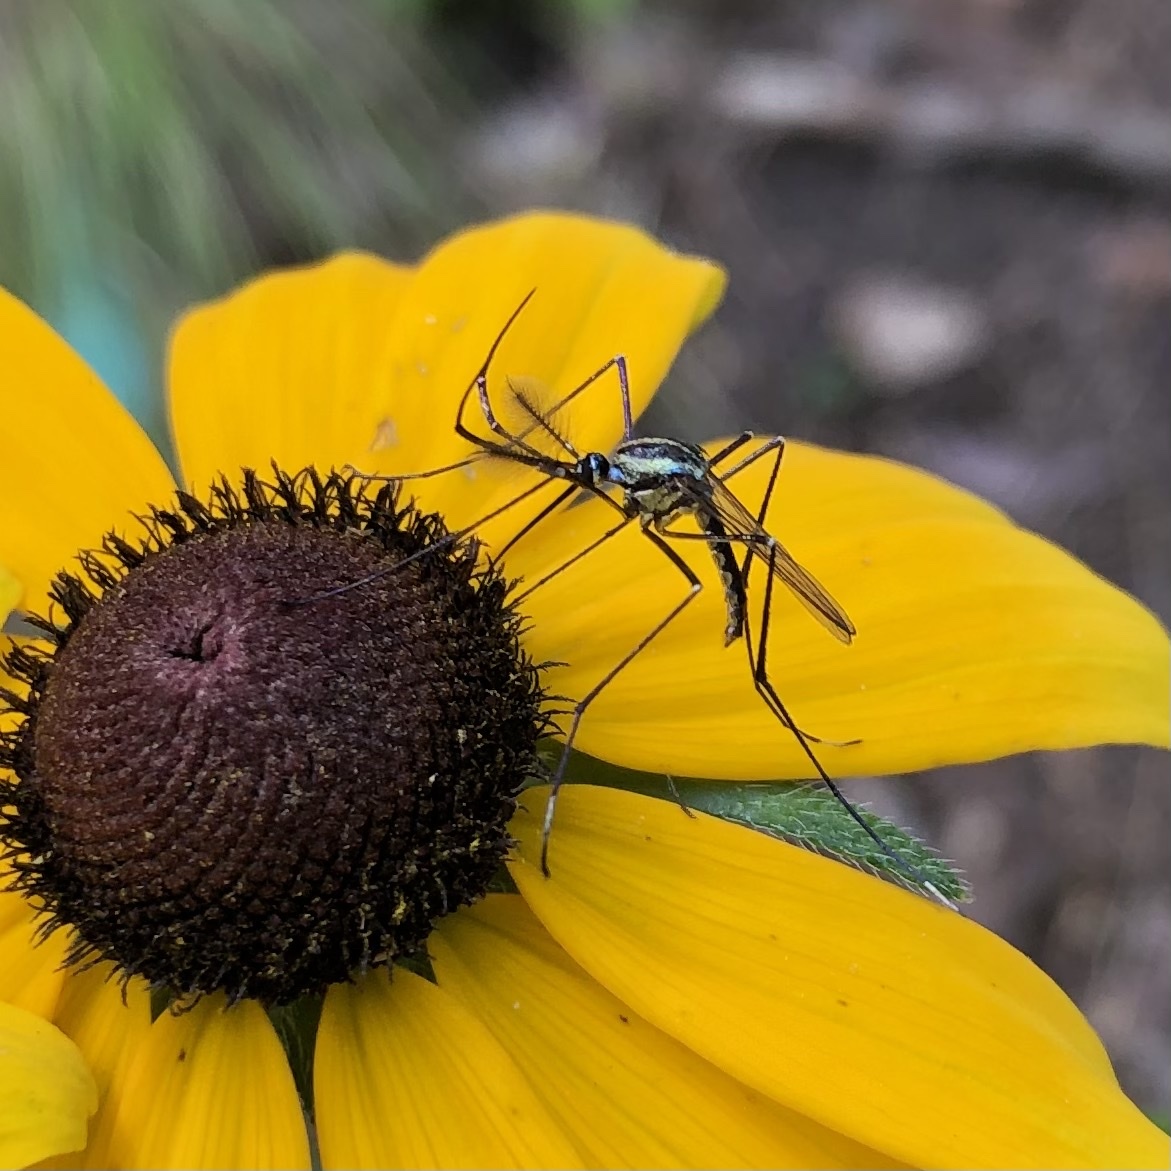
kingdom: Animalia
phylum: Arthropoda
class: Insecta
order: Diptera
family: Culicidae
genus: Toxorhynchites
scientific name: Toxorhynchites rutilus
